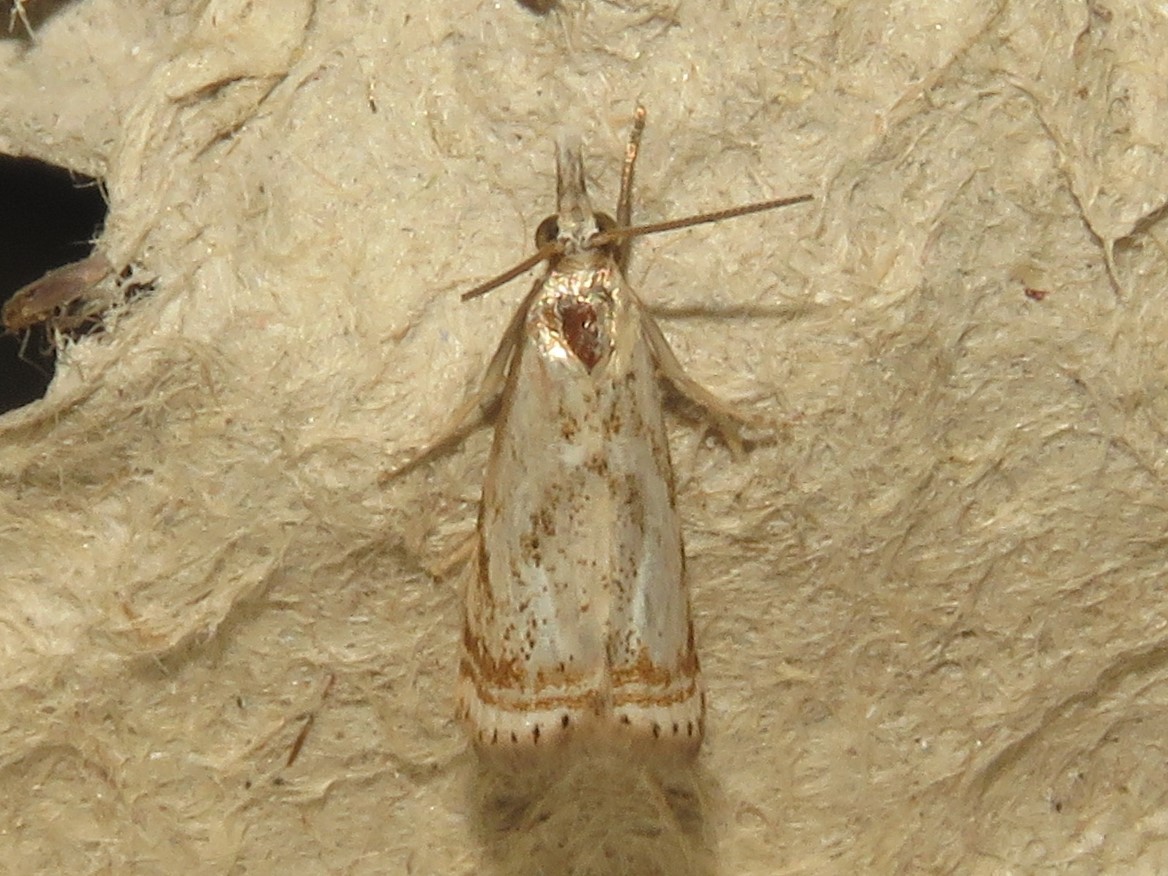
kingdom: Animalia
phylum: Arthropoda
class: Insecta
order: Lepidoptera
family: Crambidae
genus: Microcrambus
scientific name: Microcrambus elegans
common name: Elegant grass-veneer
